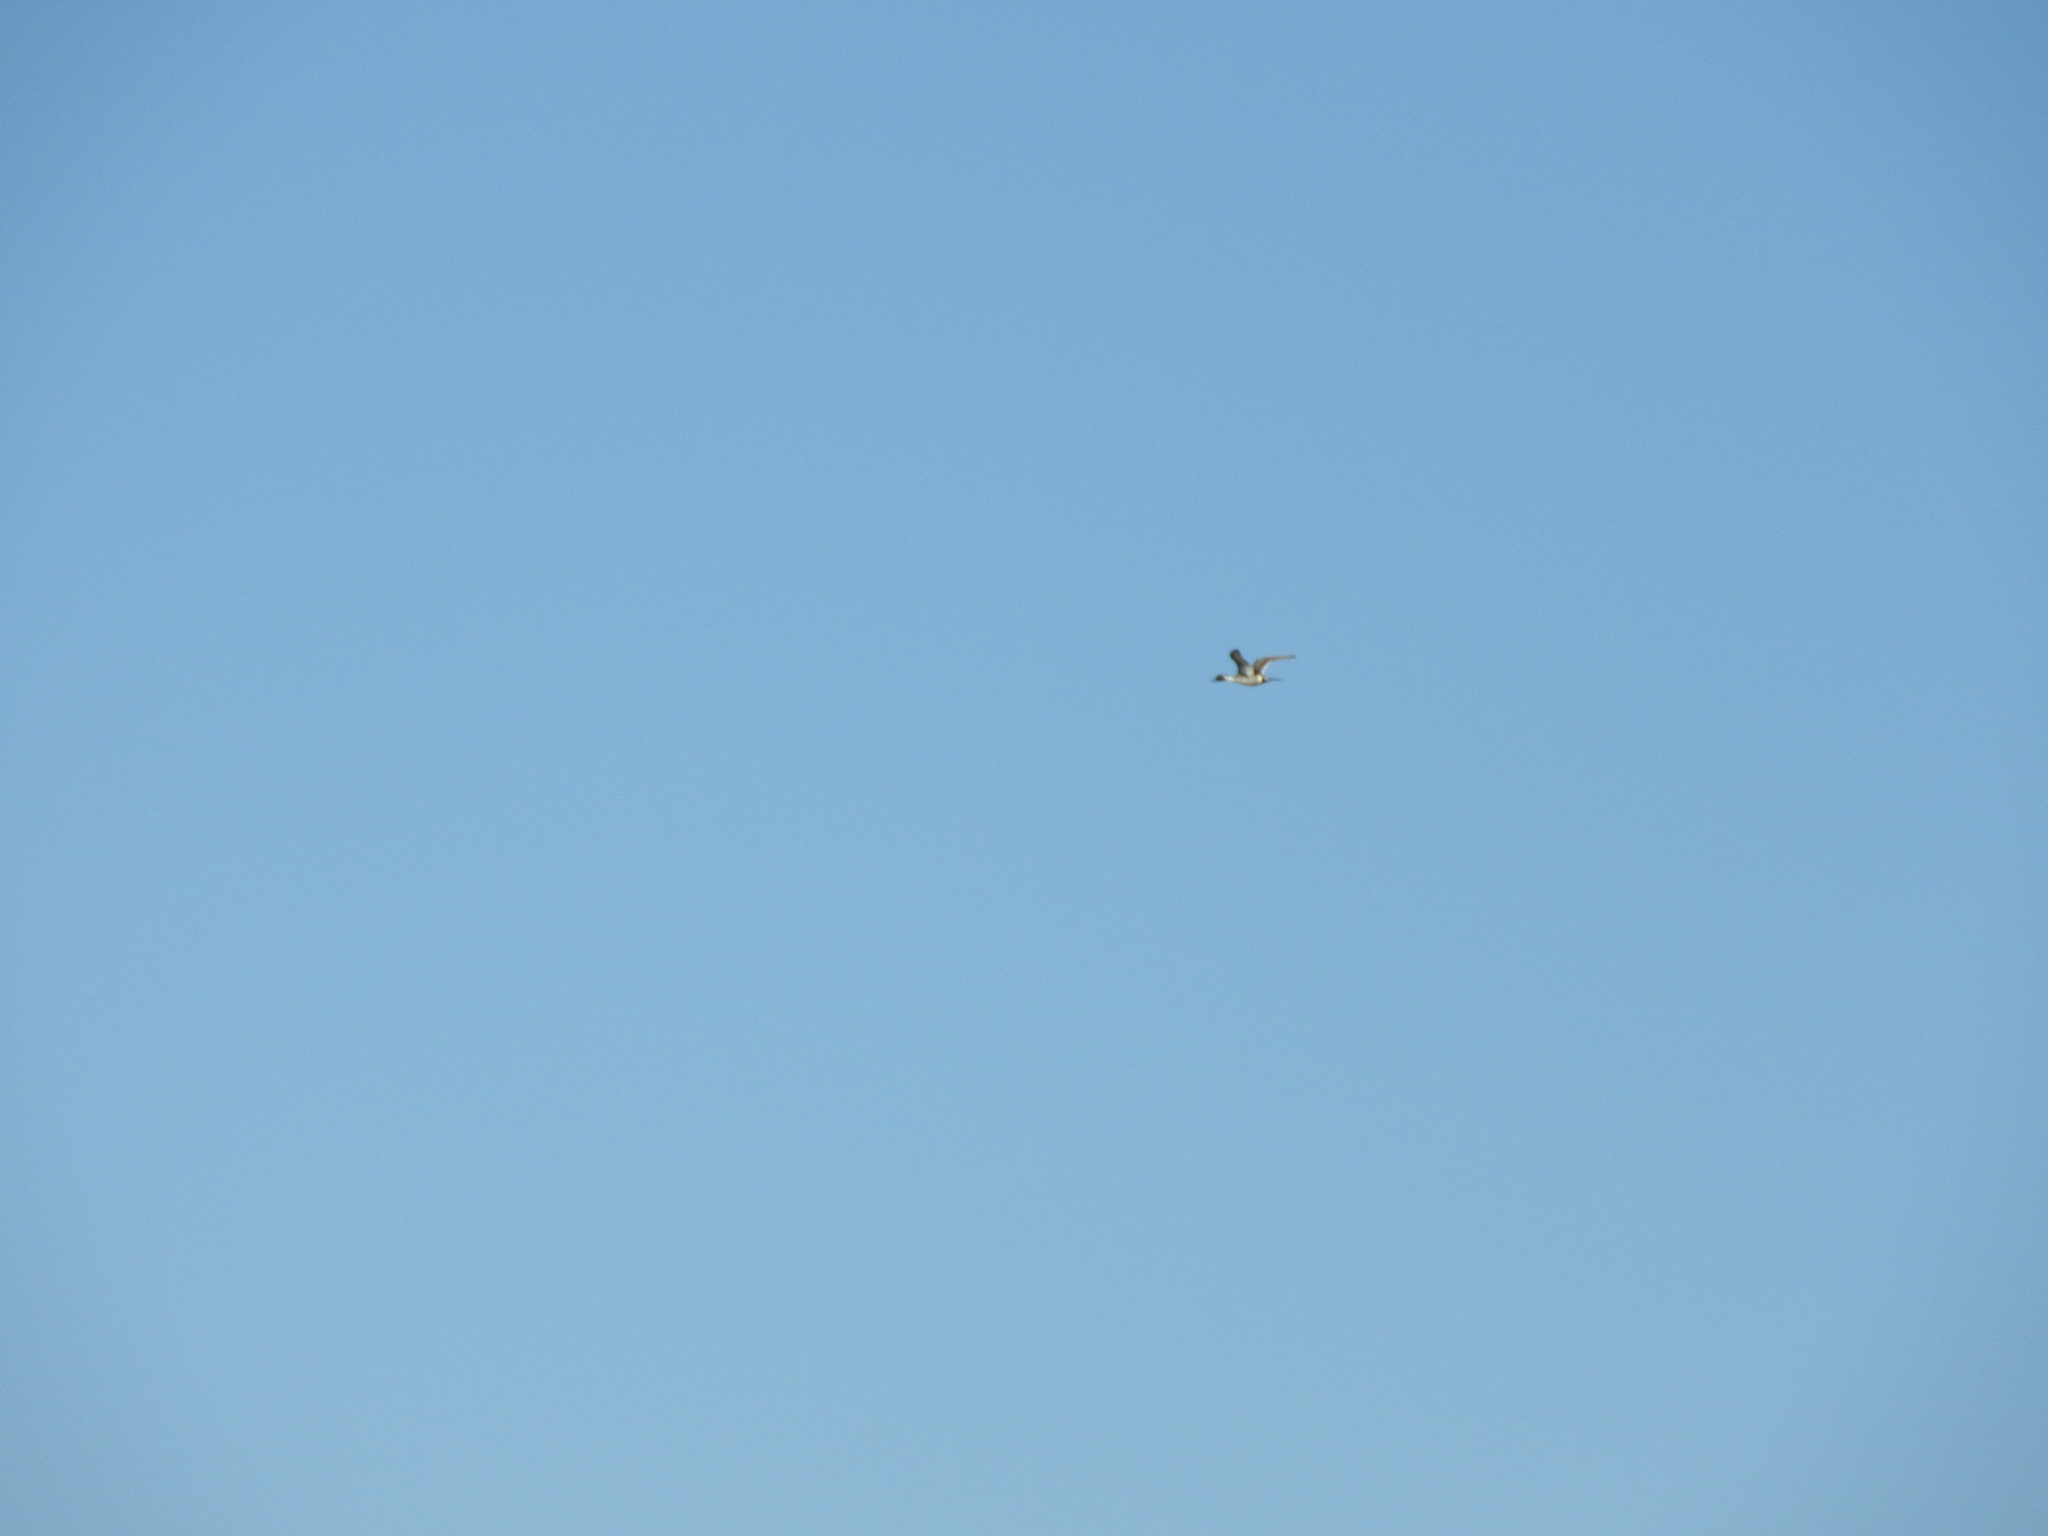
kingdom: Animalia
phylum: Chordata
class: Aves
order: Anseriformes
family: Anatidae
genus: Anas
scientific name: Anas acuta
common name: Northern pintail
